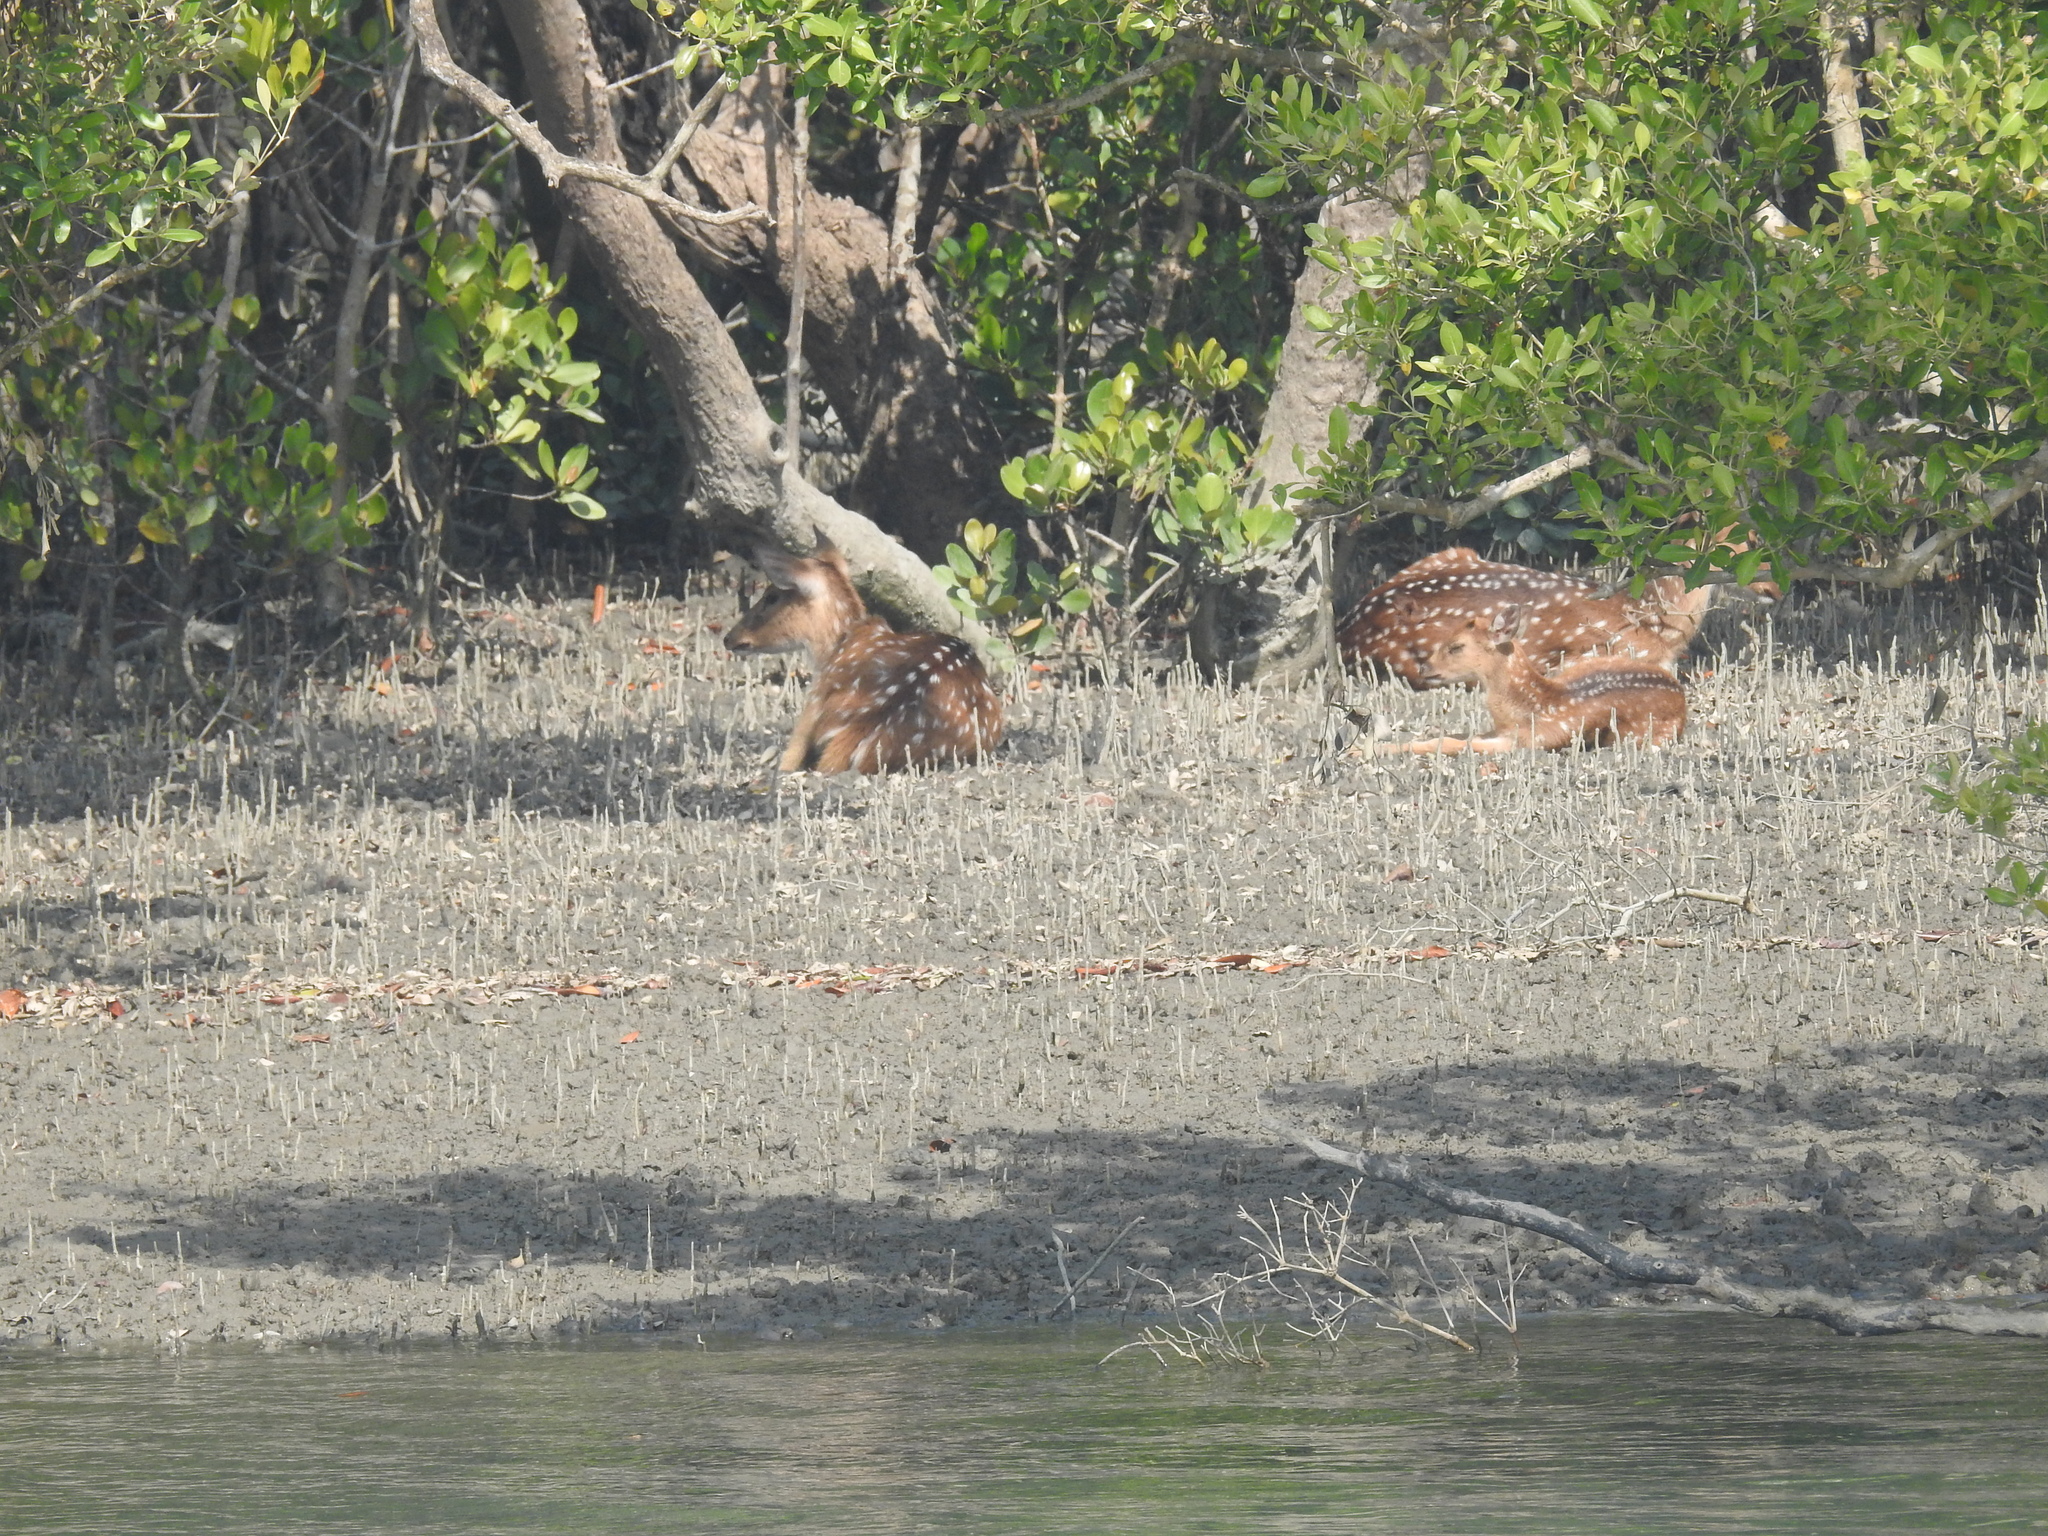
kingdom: Animalia
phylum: Chordata
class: Mammalia
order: Artiodactyla
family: Cervidae
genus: Axis
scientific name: Axis axis
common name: Chital
